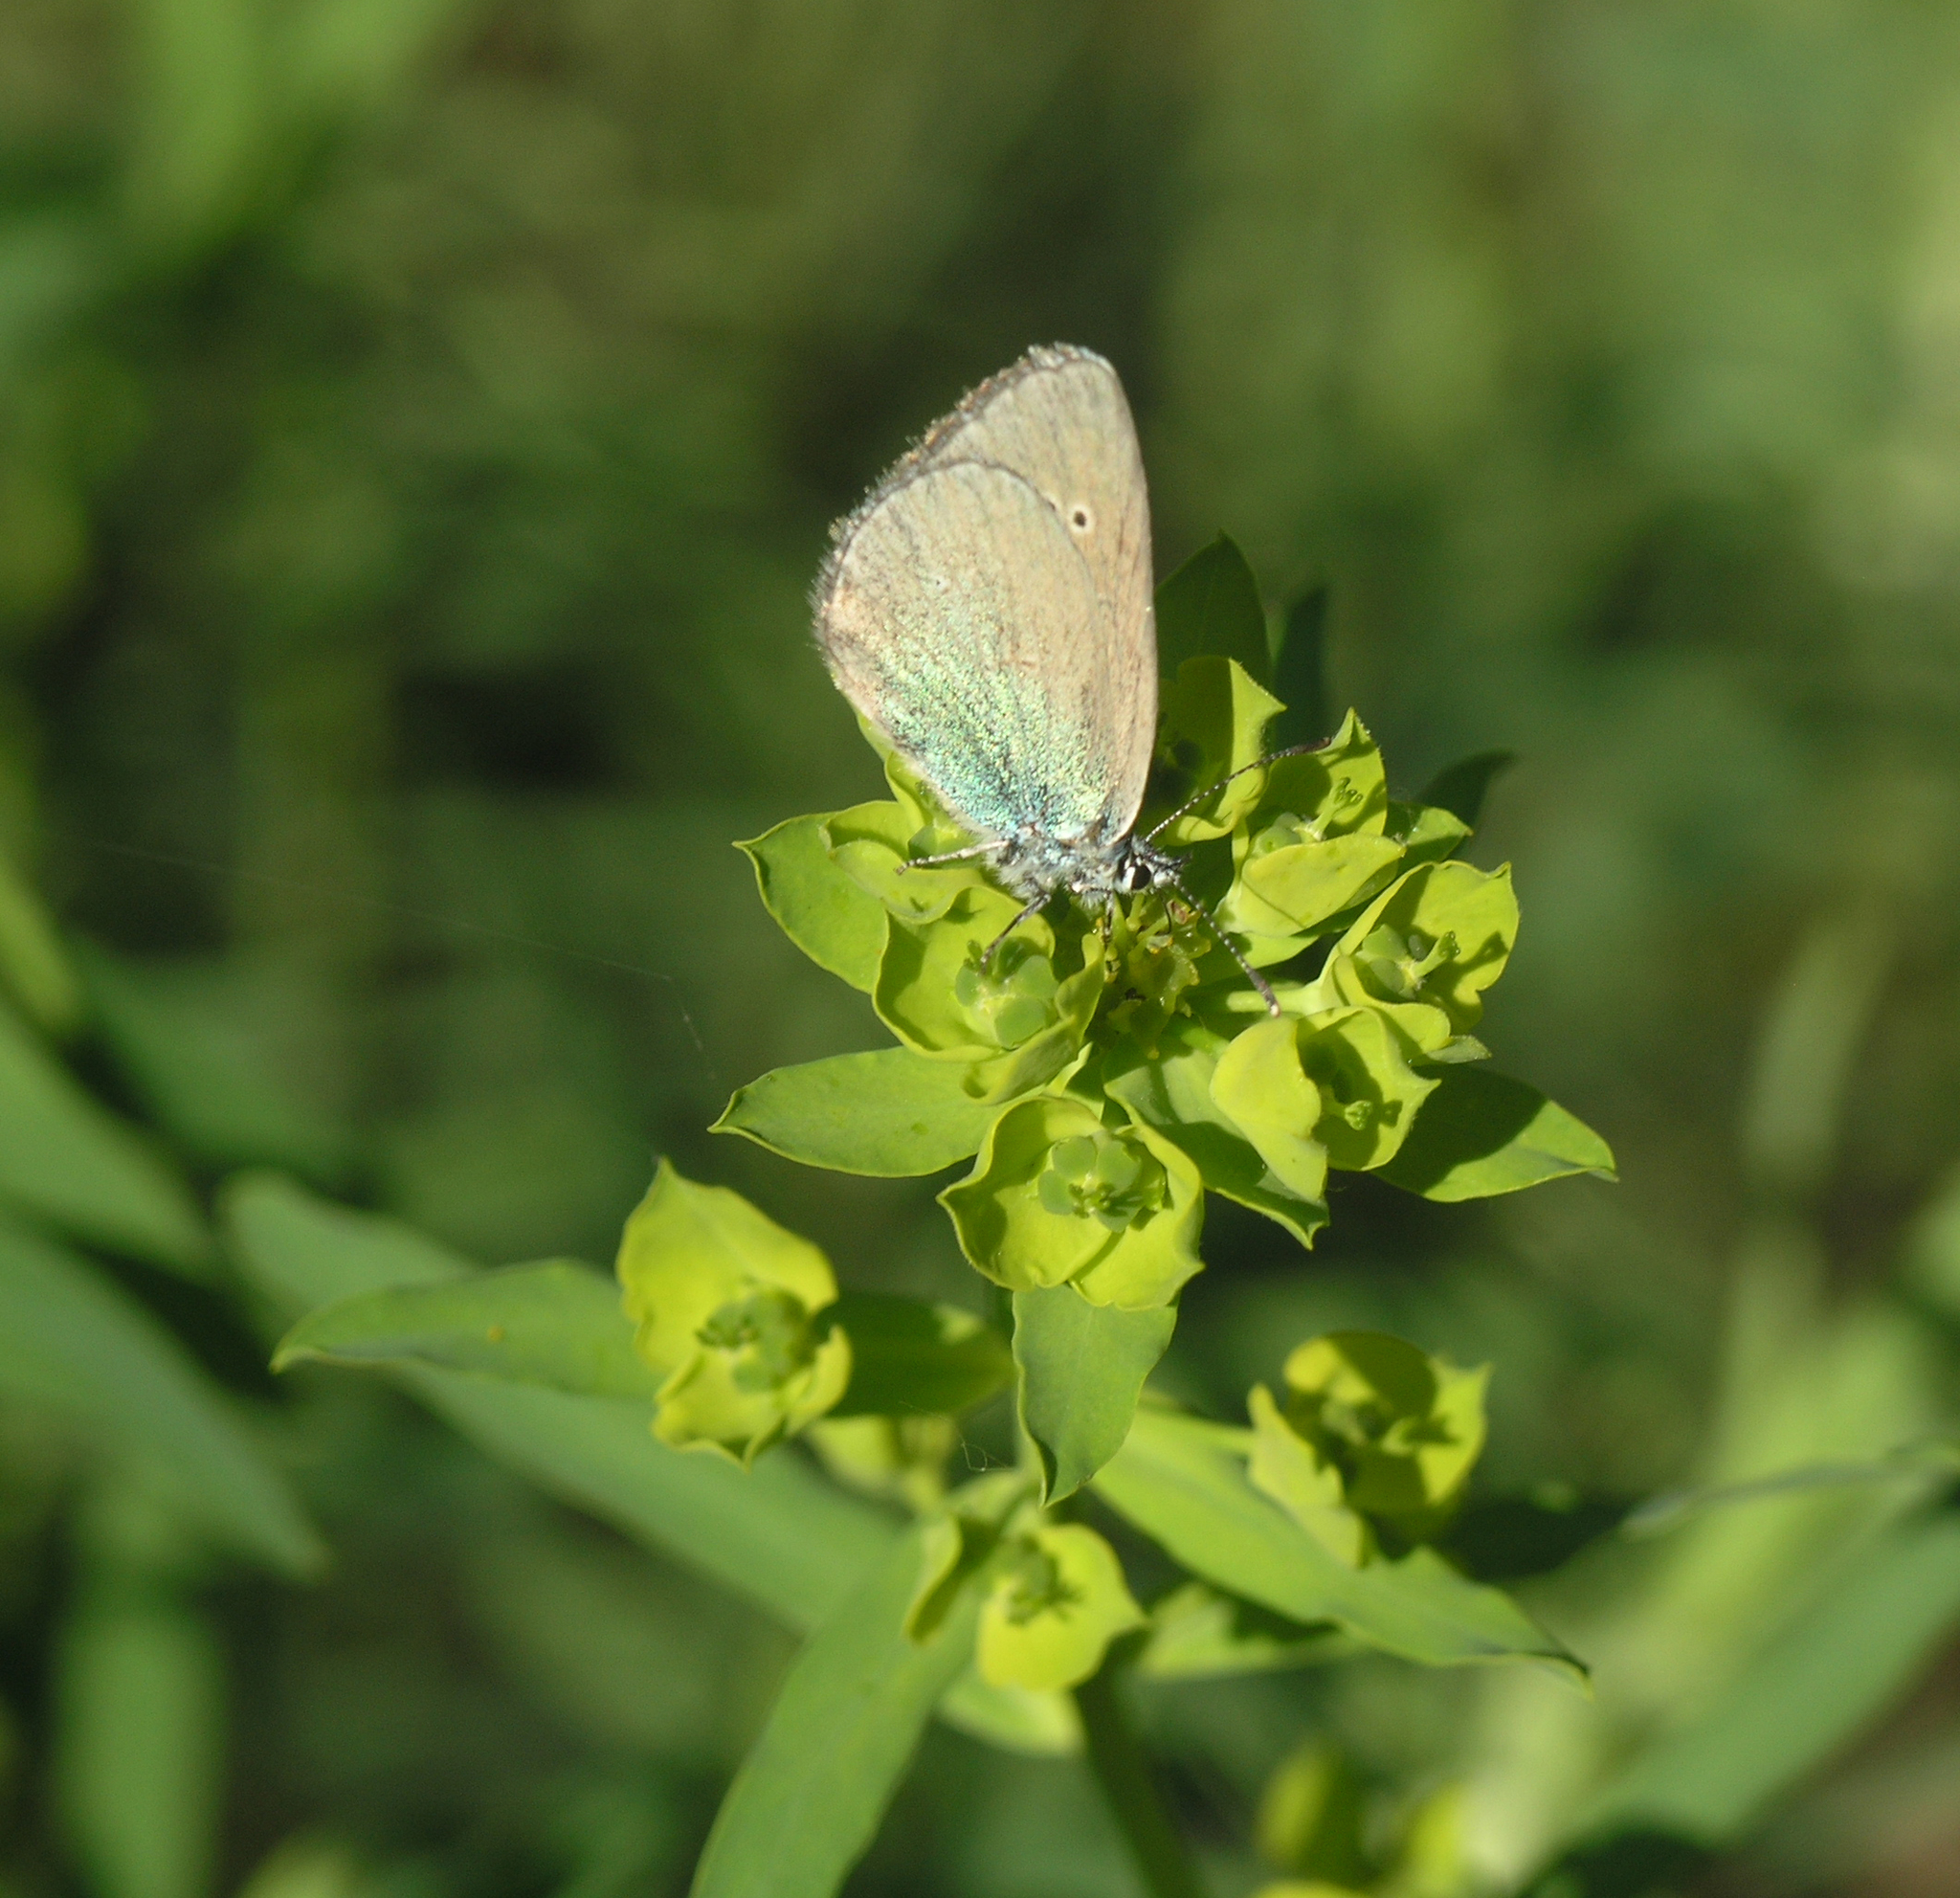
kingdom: Plantae
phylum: Tracheophyta
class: Magnoliopsida
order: Malpighiales
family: Euphorbiaceae
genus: Euphorbia
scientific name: Euphorbia virgata
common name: Leafy spurge
